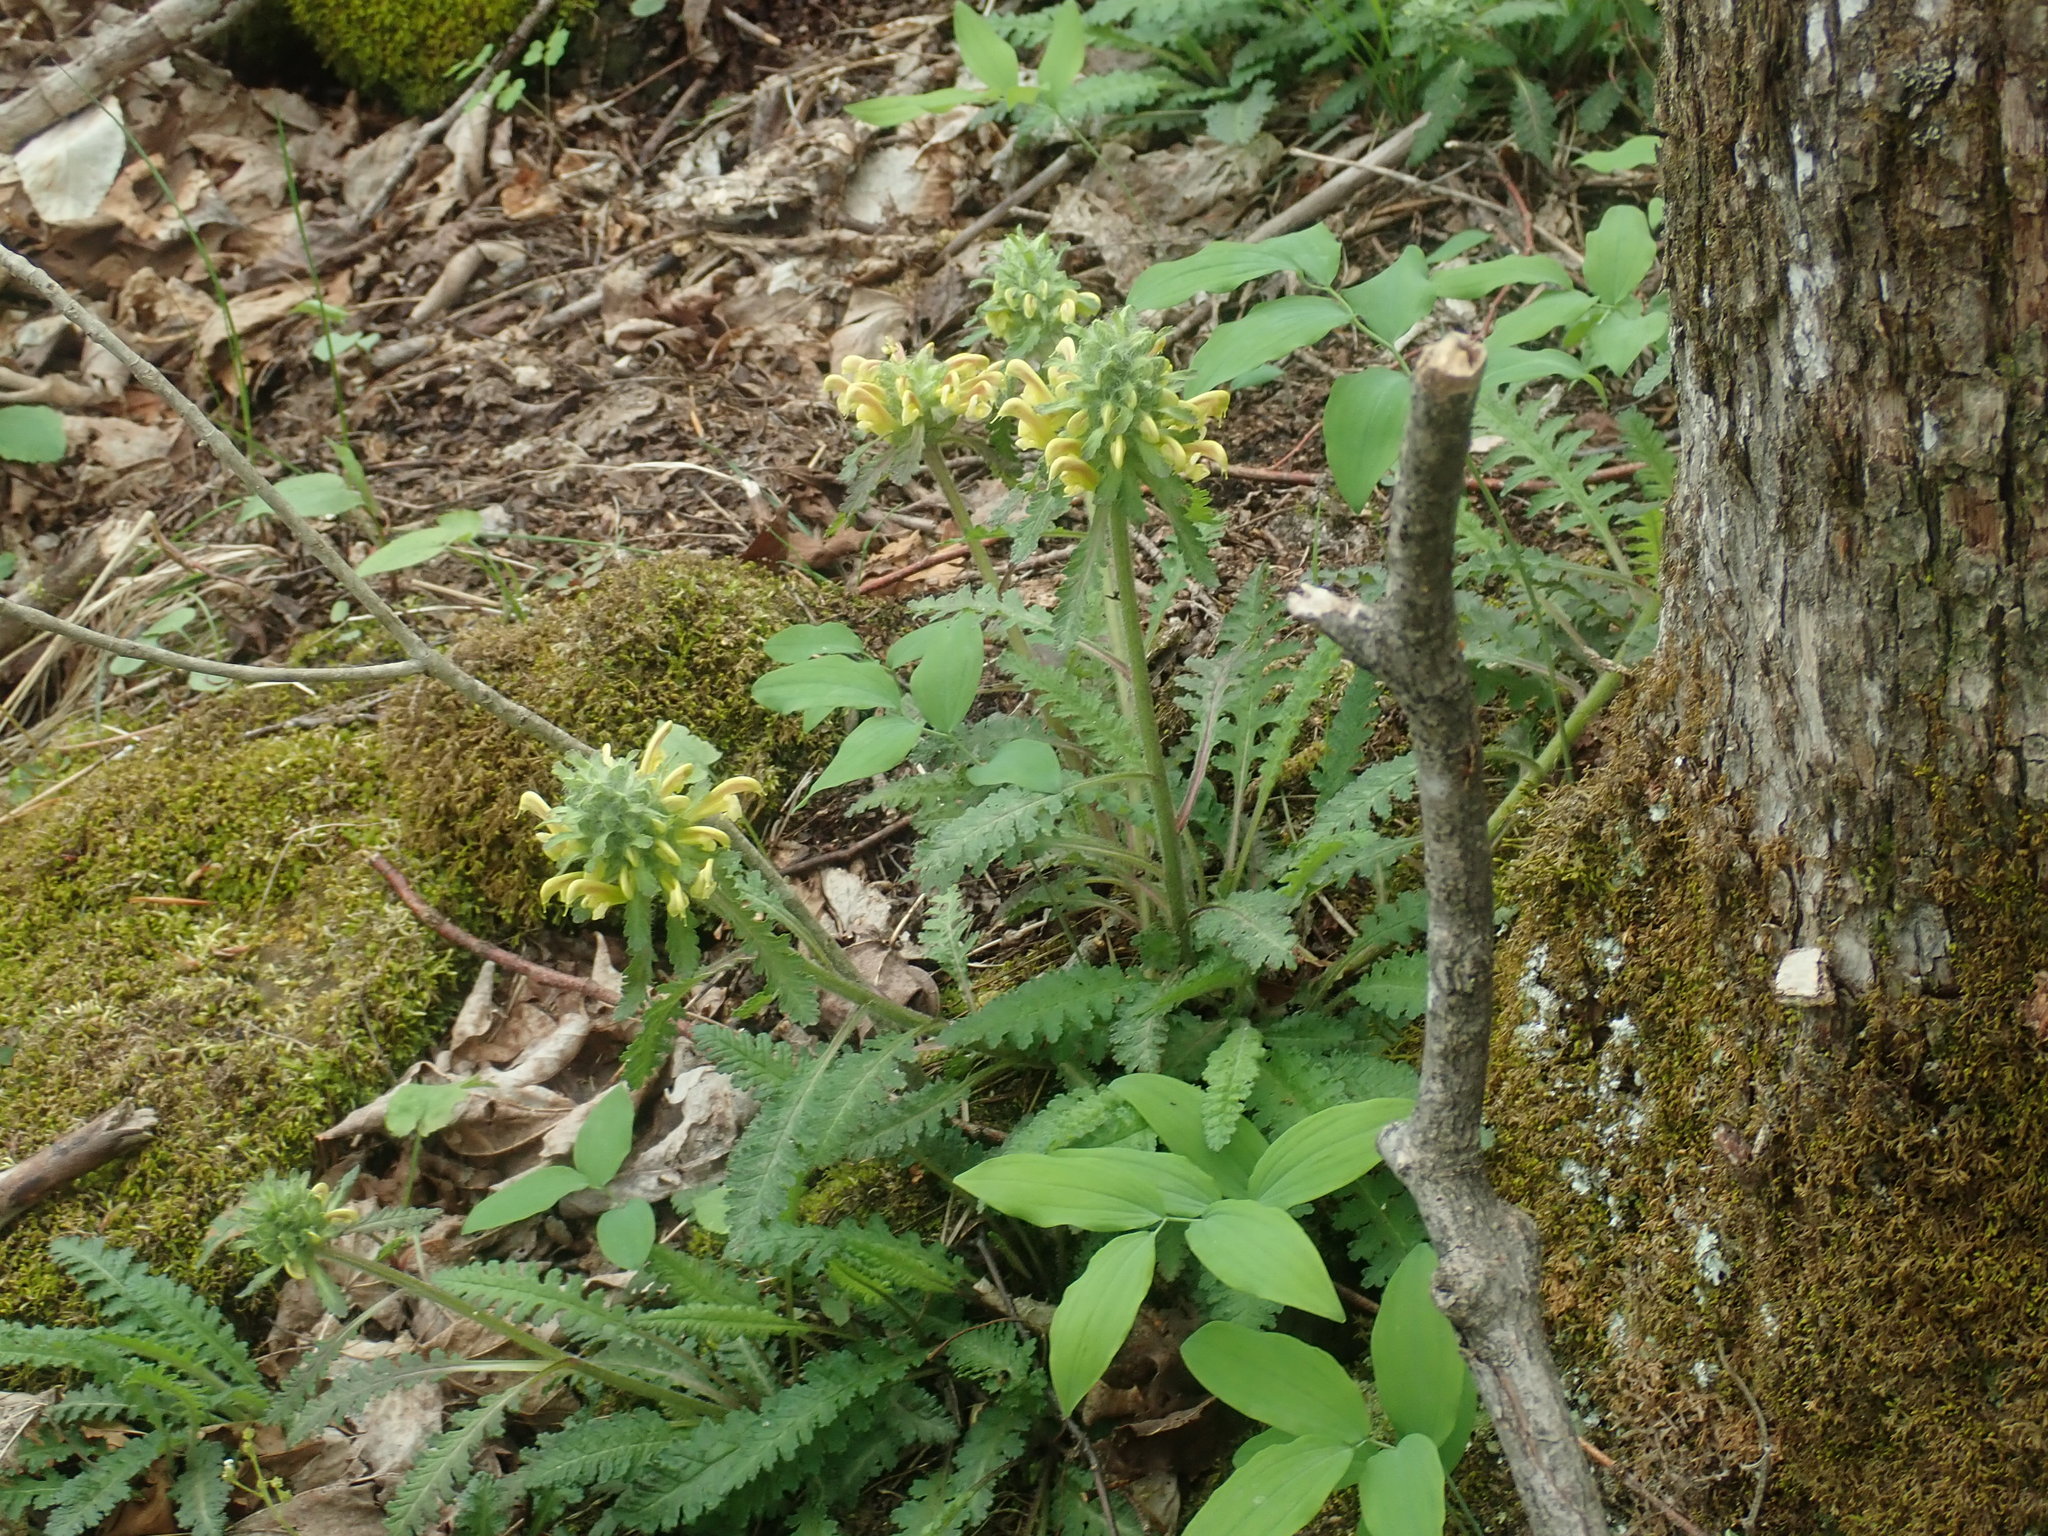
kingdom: Plantae
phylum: Tracheophyta
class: Magnoliopsida
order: Lamiales
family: Orobanchaceae
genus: Pedicularis
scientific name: Pedicularis canadensis
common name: Early lousewort
